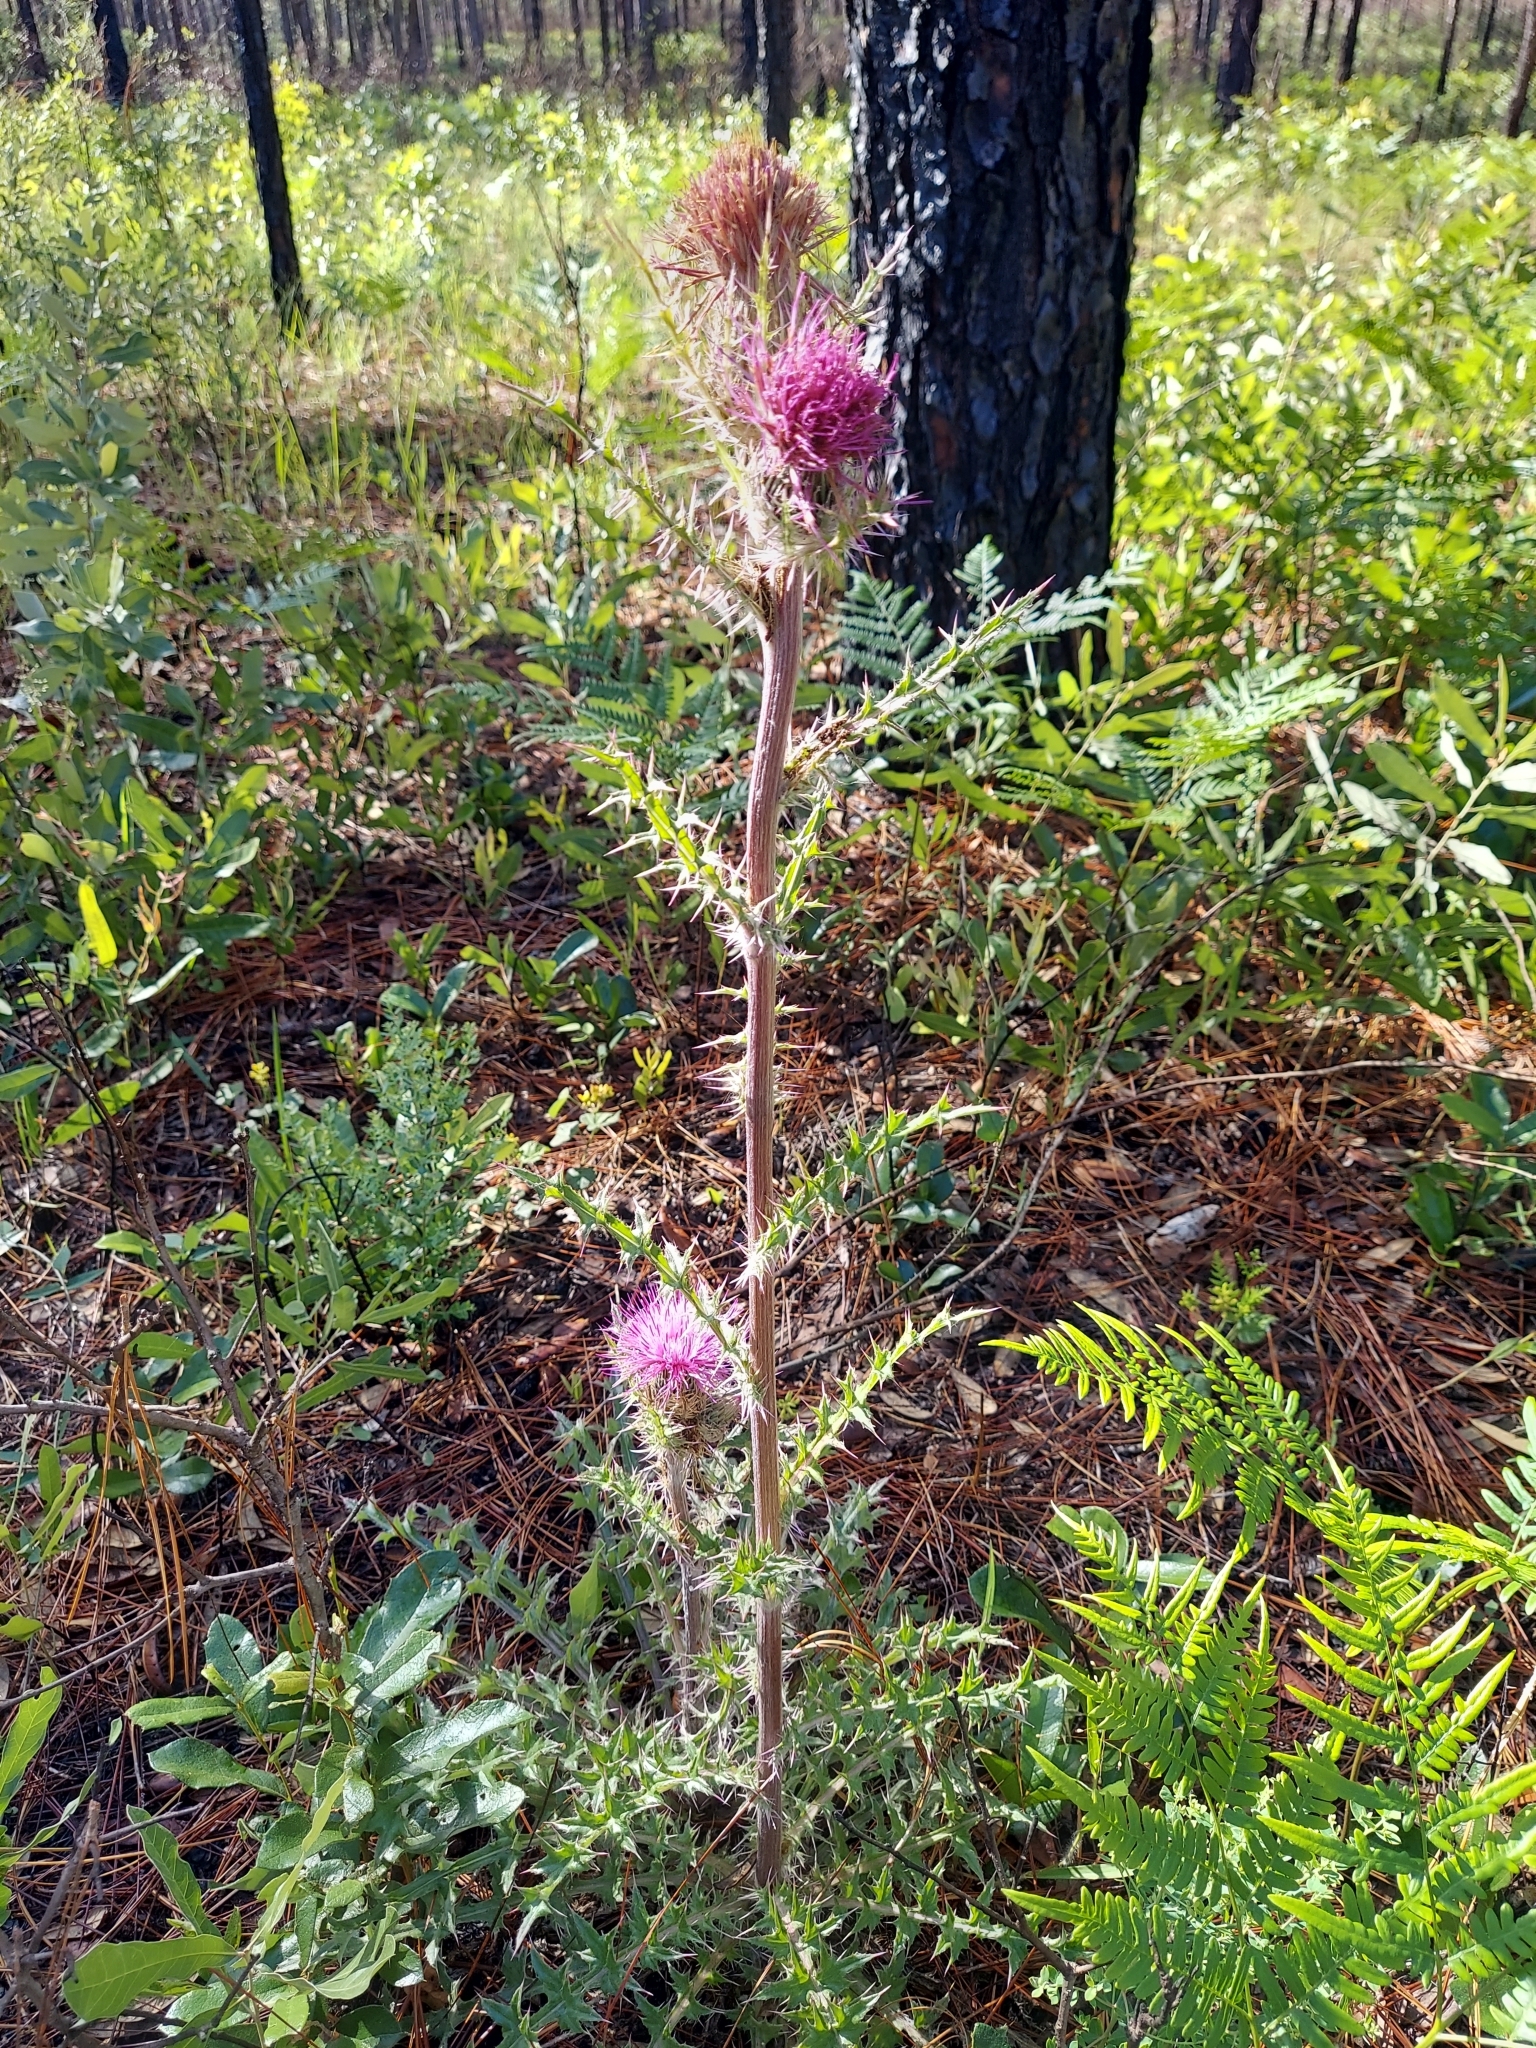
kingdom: Plantae
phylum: Tracheophyta
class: Magnoliopsida
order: Asterales
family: Asteraceae
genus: Cirsium
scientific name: Cirsium horridulum
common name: Bristly thistle
